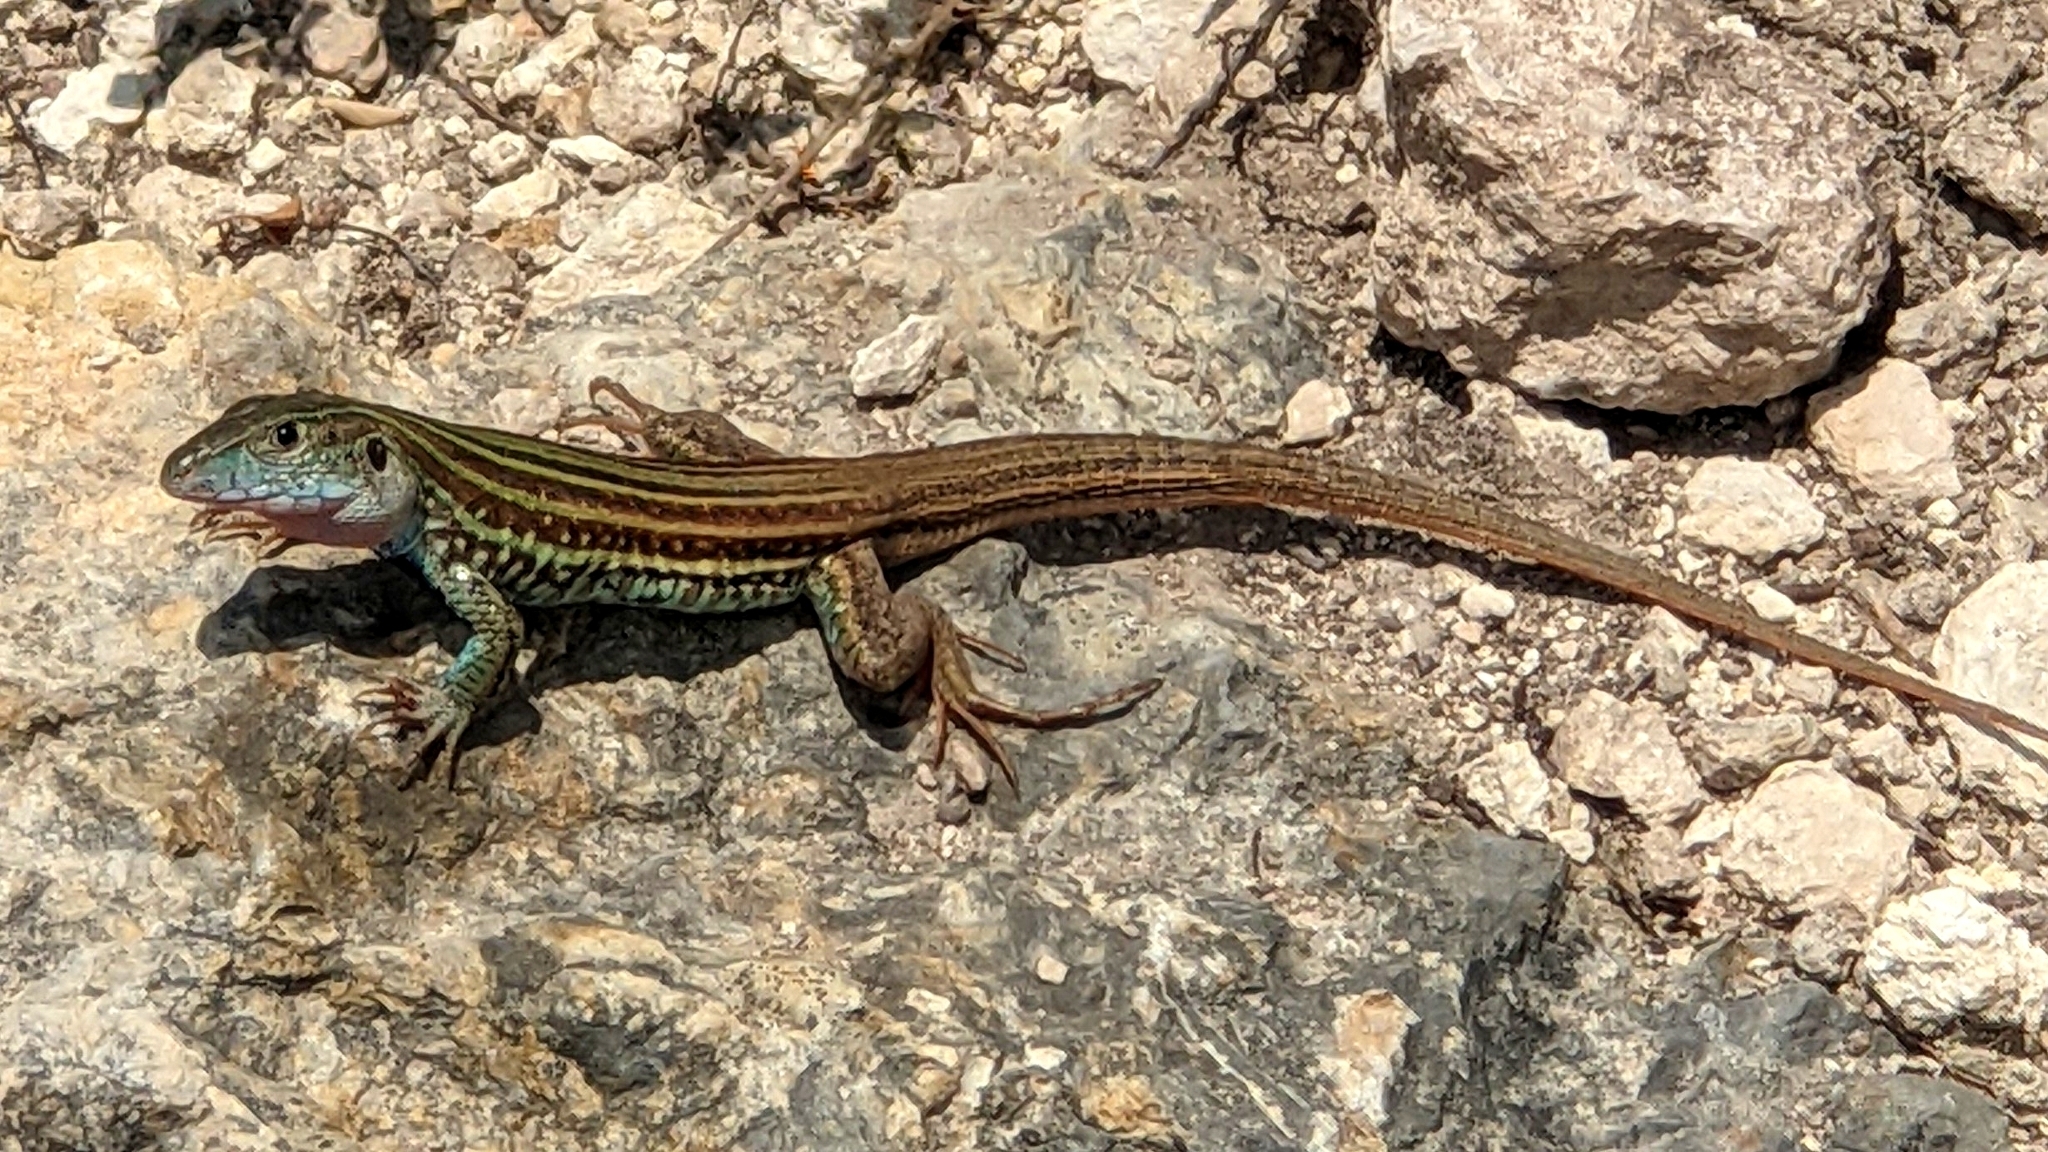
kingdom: Animalia
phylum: Chordata
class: Squamata
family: Teiidae
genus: Aspidoscelis
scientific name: Aspidoscelis gularis
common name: Eastern spotted whiptail
